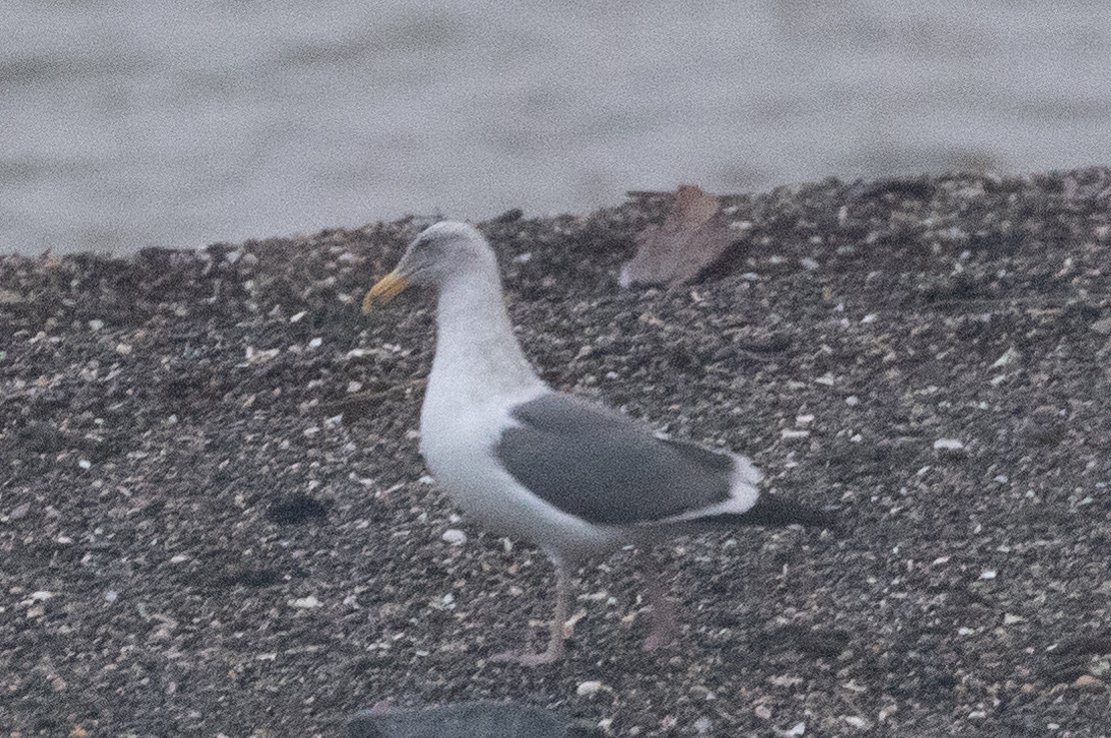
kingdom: Animalia
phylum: Chordata
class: Aves
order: Charadriiformes
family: Laridae
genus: Larus
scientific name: Larus occidentalis
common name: Western gull
